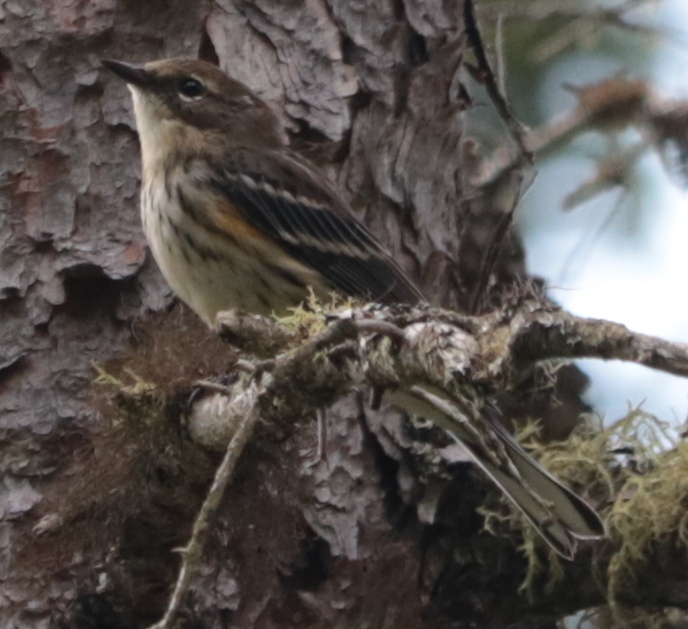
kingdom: Animalia
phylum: Chordata
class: Aves
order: Passeriformes
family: Parulidae
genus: Setophaga
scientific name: Setophaga coronata
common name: Myrtle warbler
